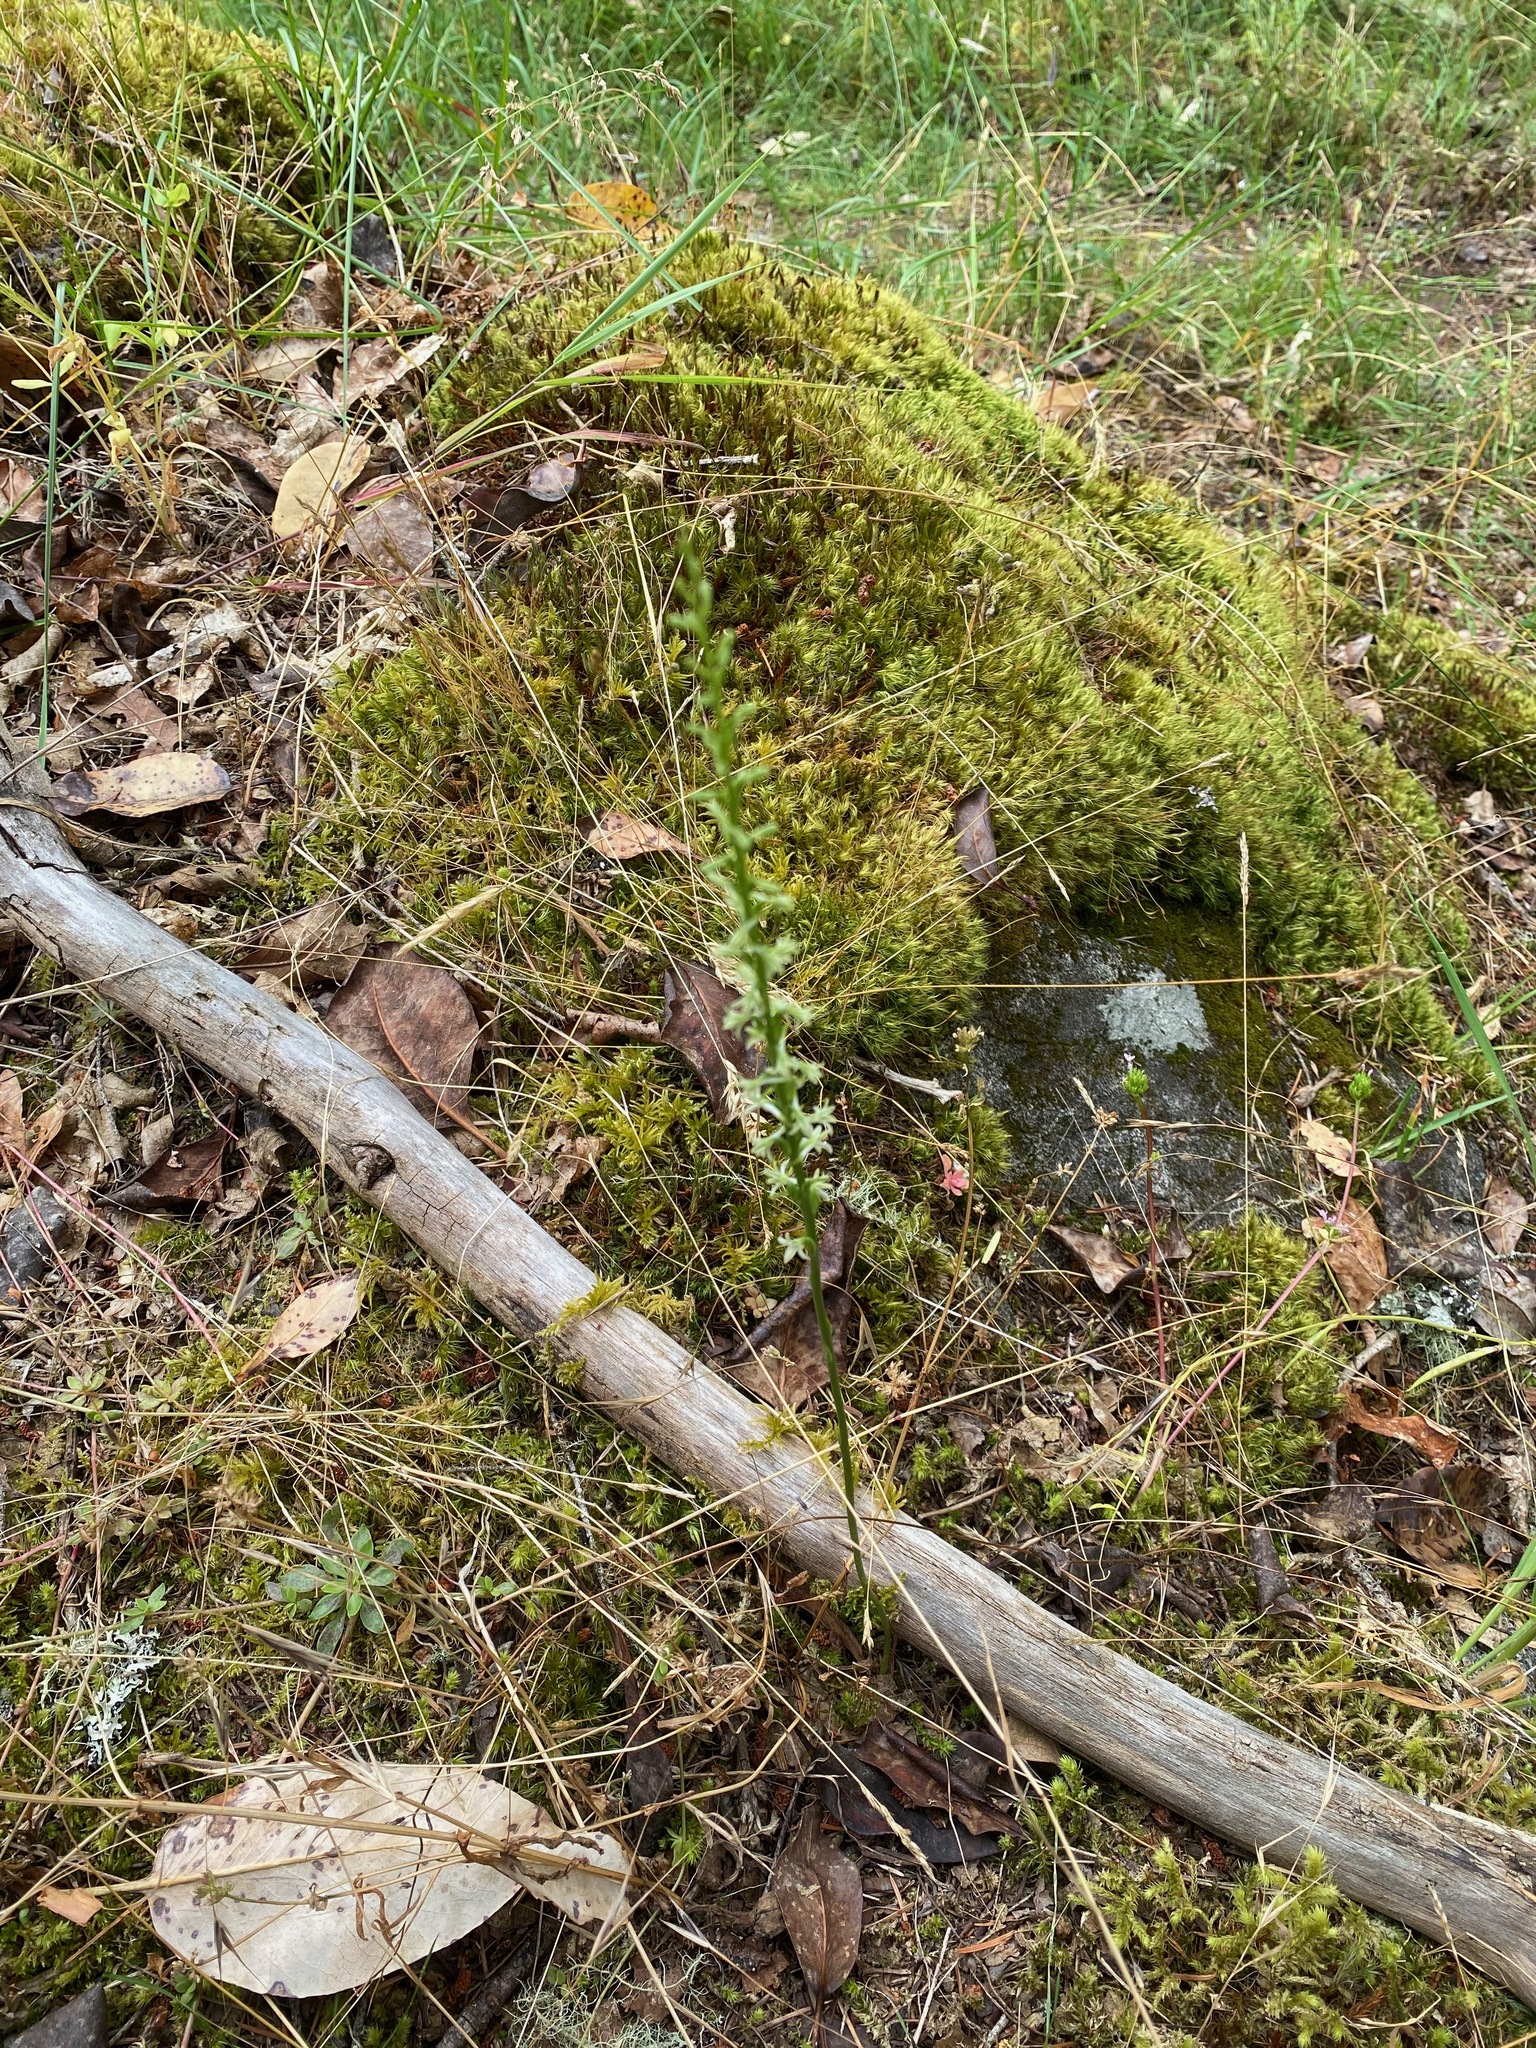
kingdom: Plantae
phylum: Tracheophyta
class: Liliopsida
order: Asparagales
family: Orchidaceae
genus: Platanthera
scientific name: Platanthera transversa
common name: Royal rein orchid
